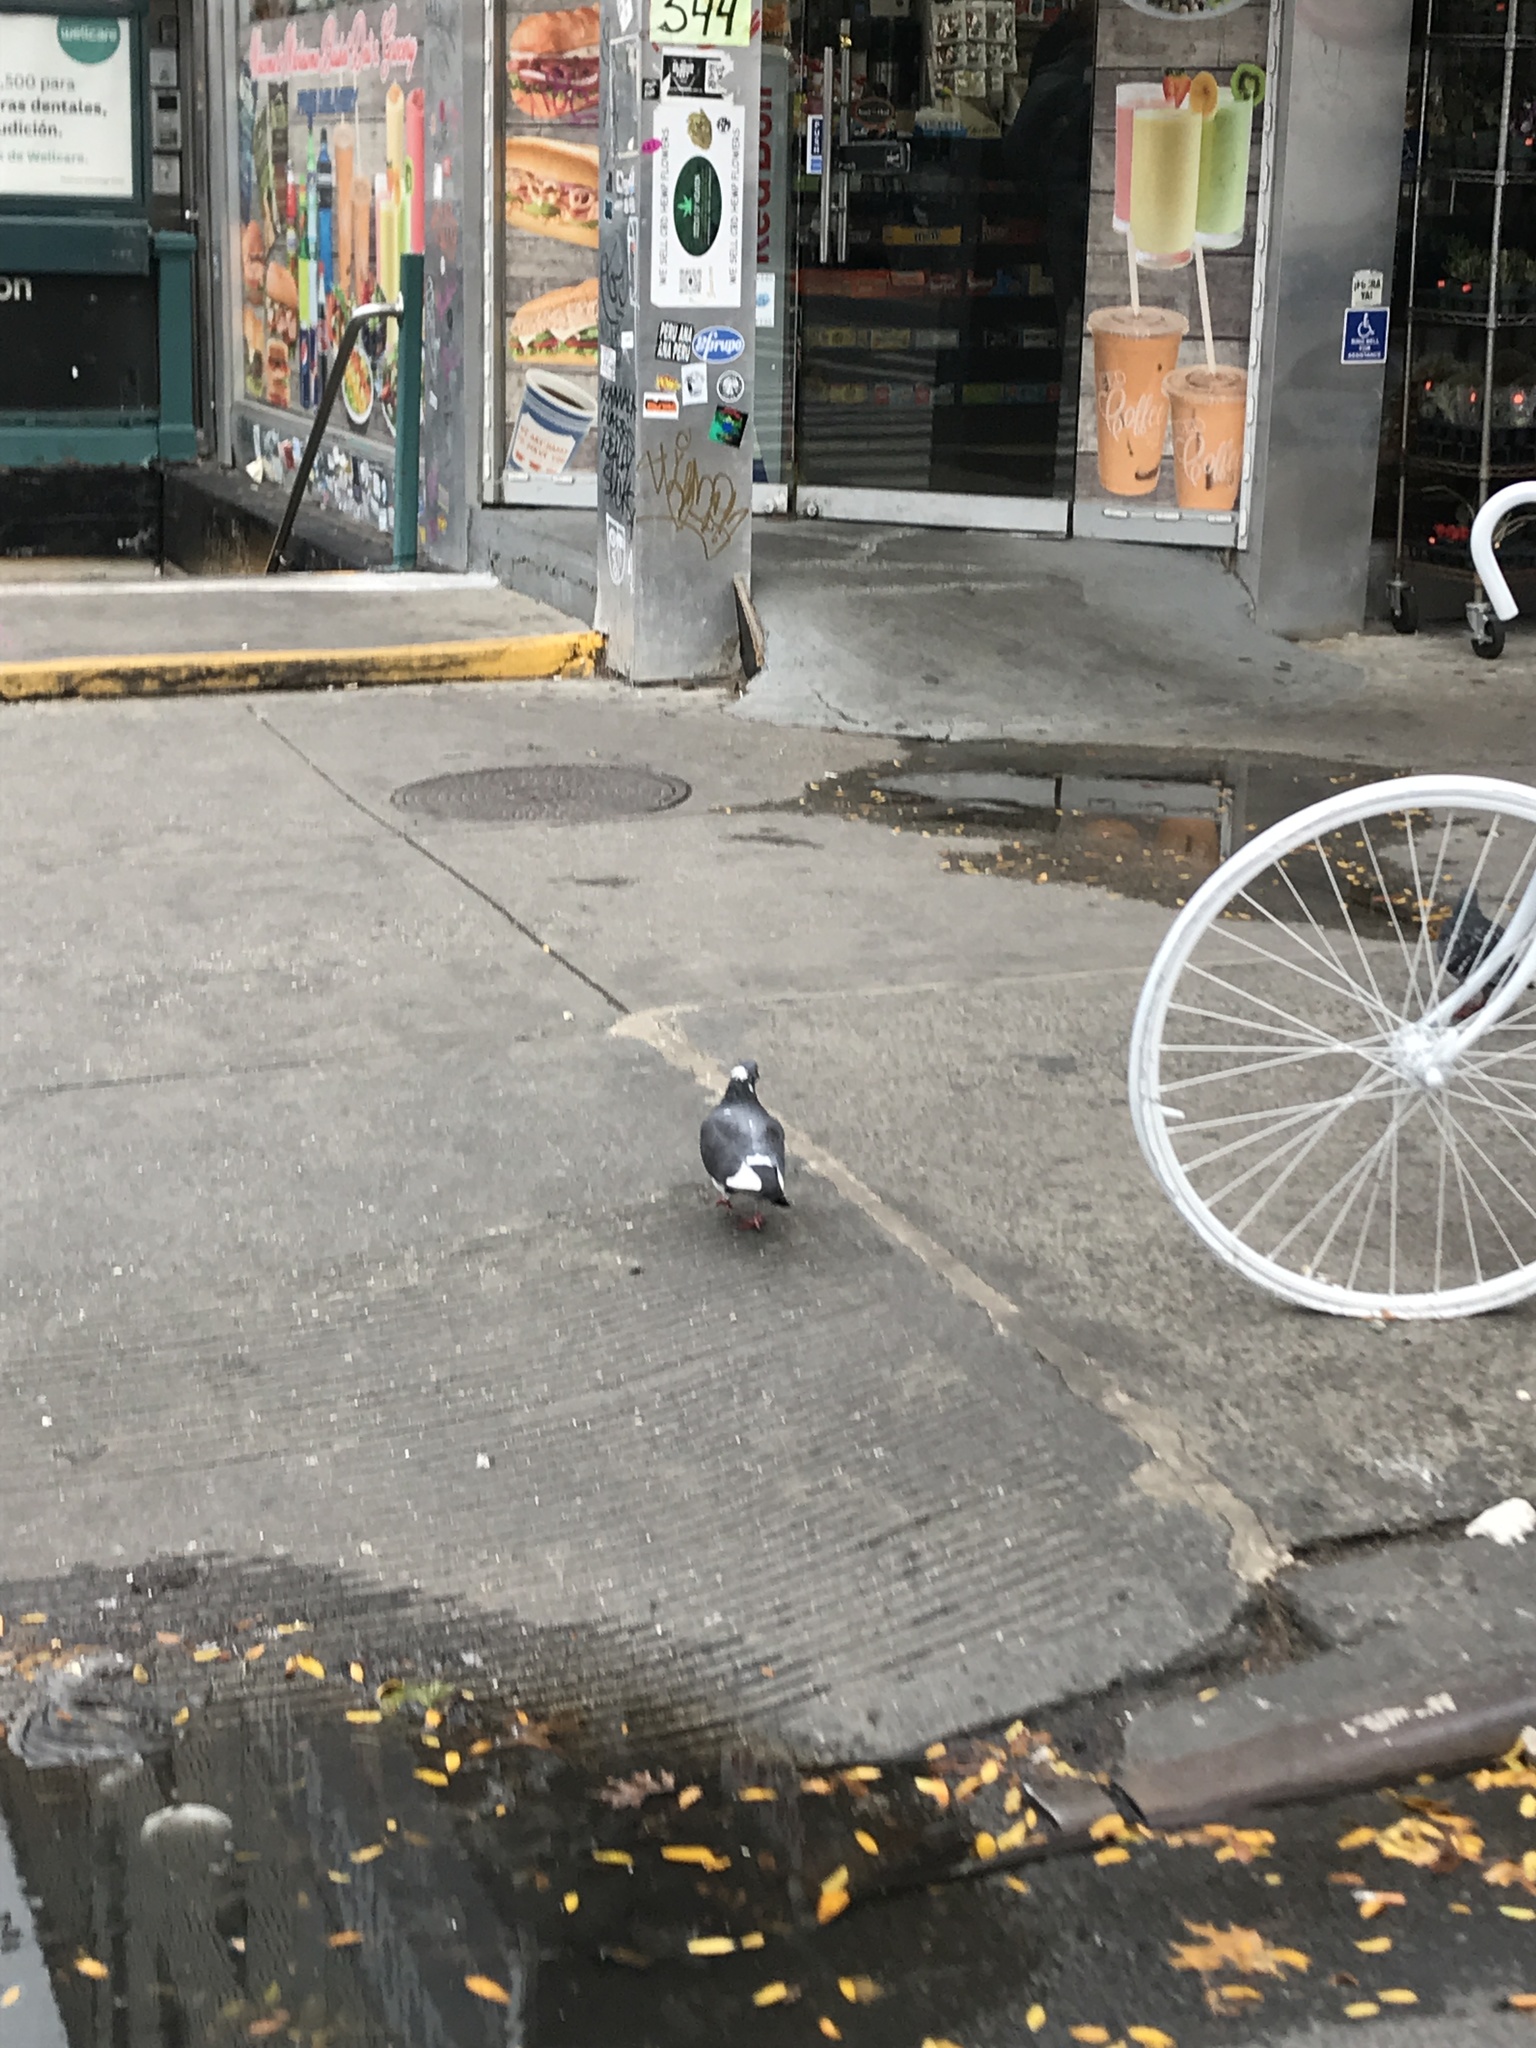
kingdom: Animalia
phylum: Chordata
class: Aves
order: Columbiformes
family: Columbidae
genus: Columba
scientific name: Columba livia
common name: Rock pigeon
